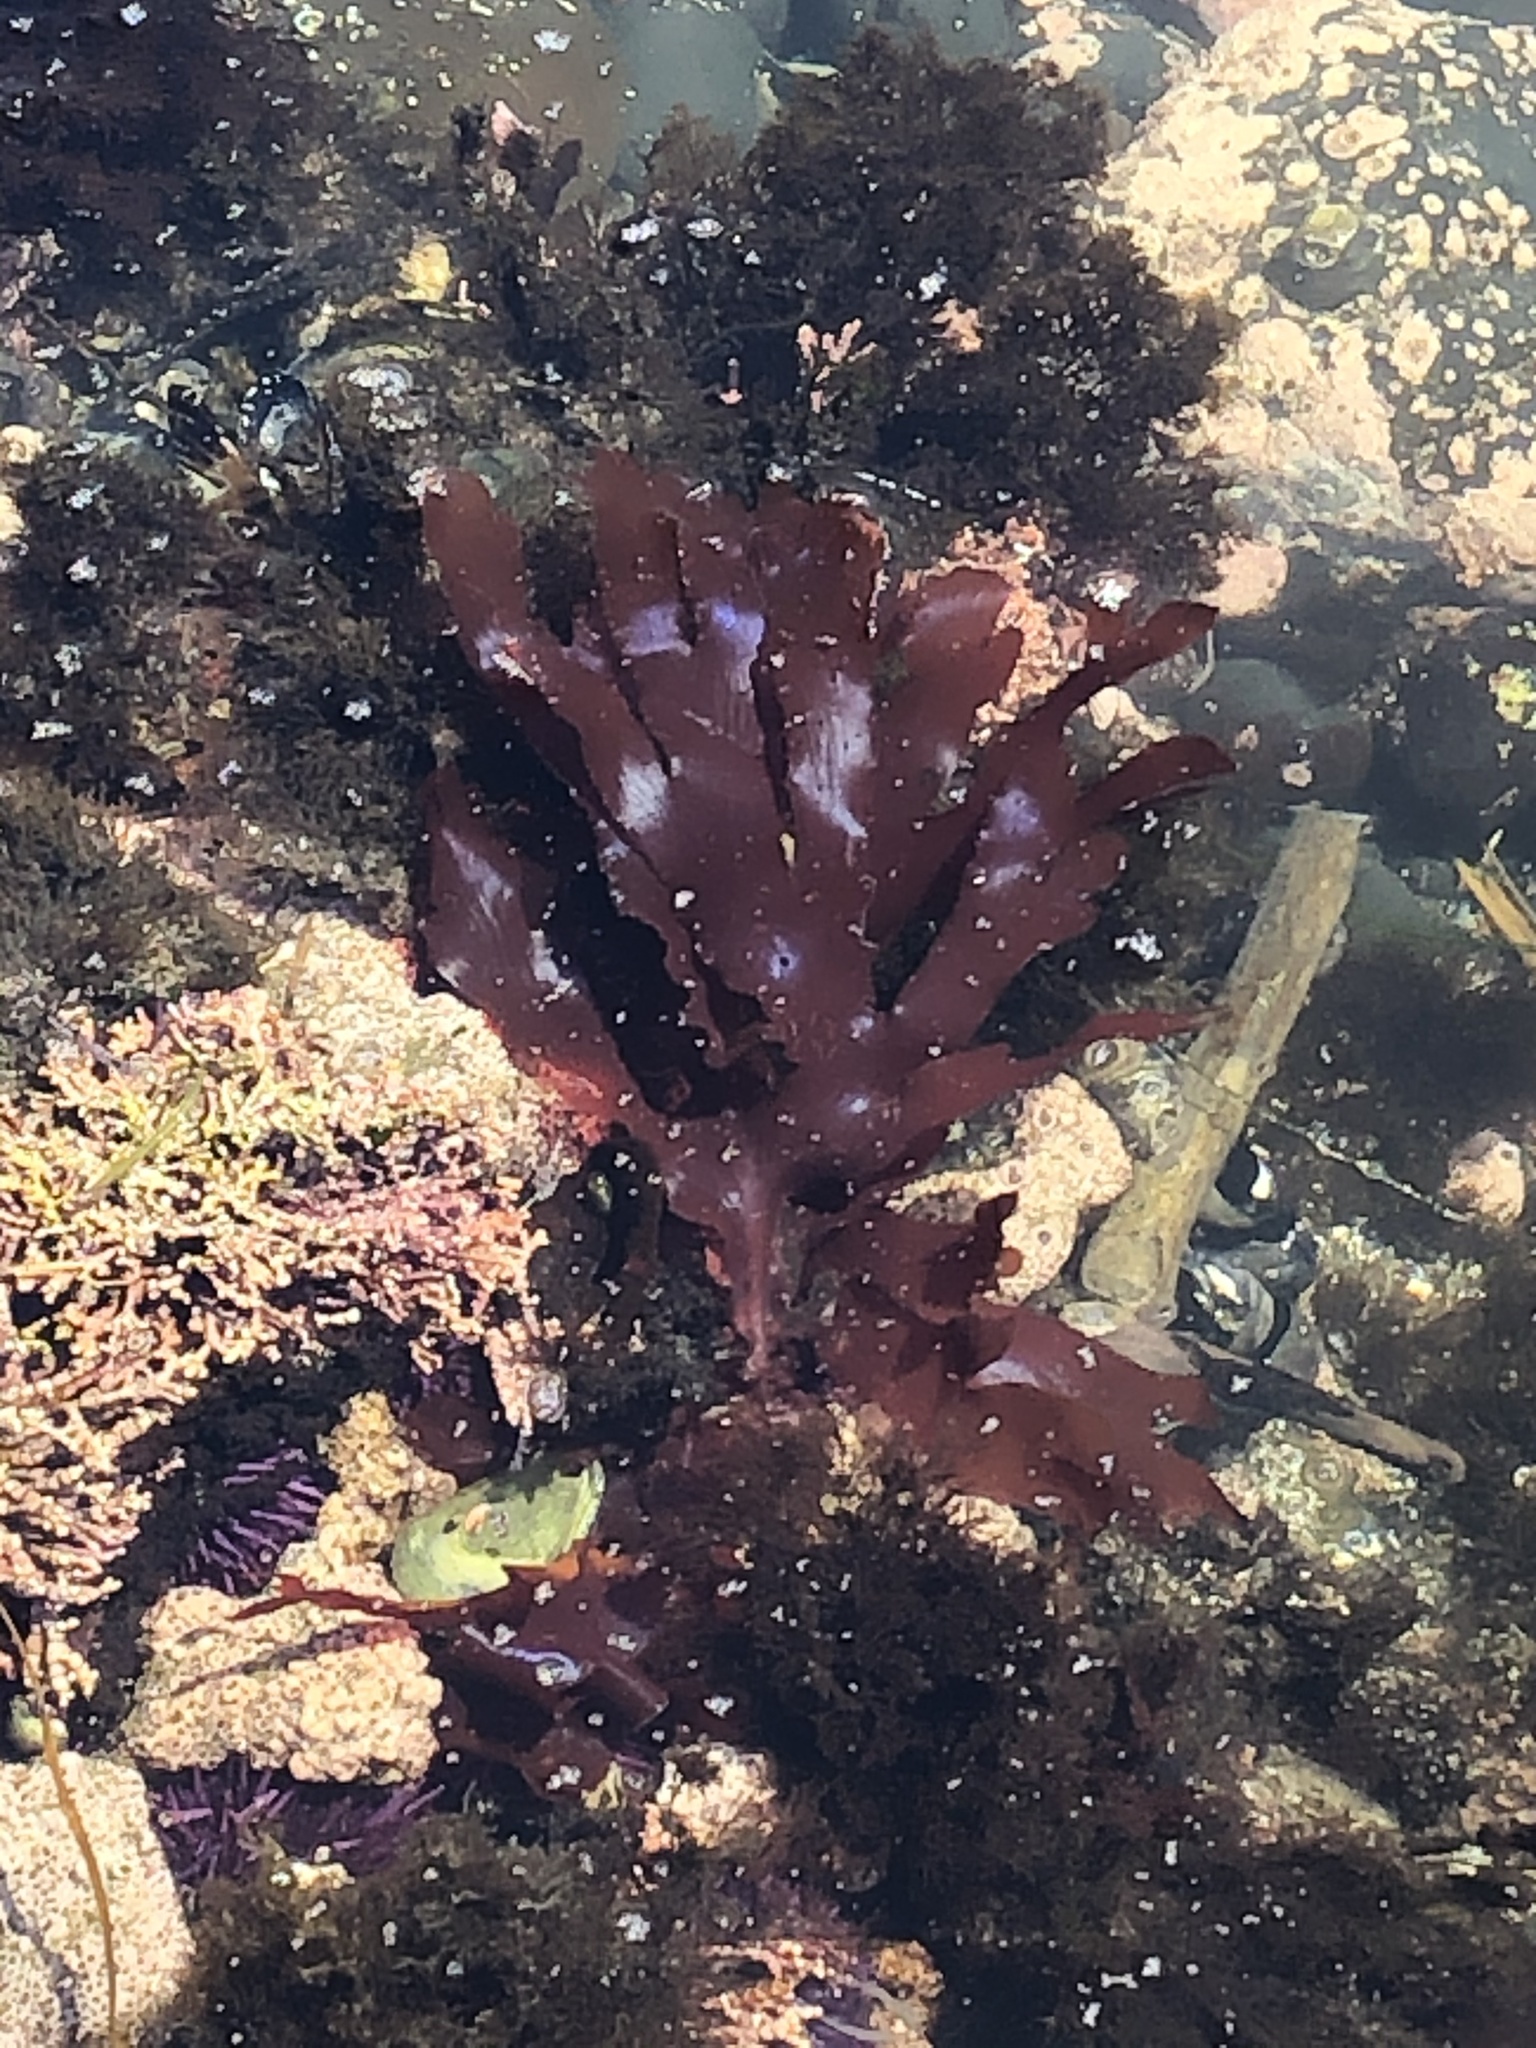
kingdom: Plantae
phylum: Rhodophyta
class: Florideophyceae
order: Ceramiales
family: Delesseriaceae
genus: Cryptopleura
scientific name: Cryptopleura ruprechtiana
